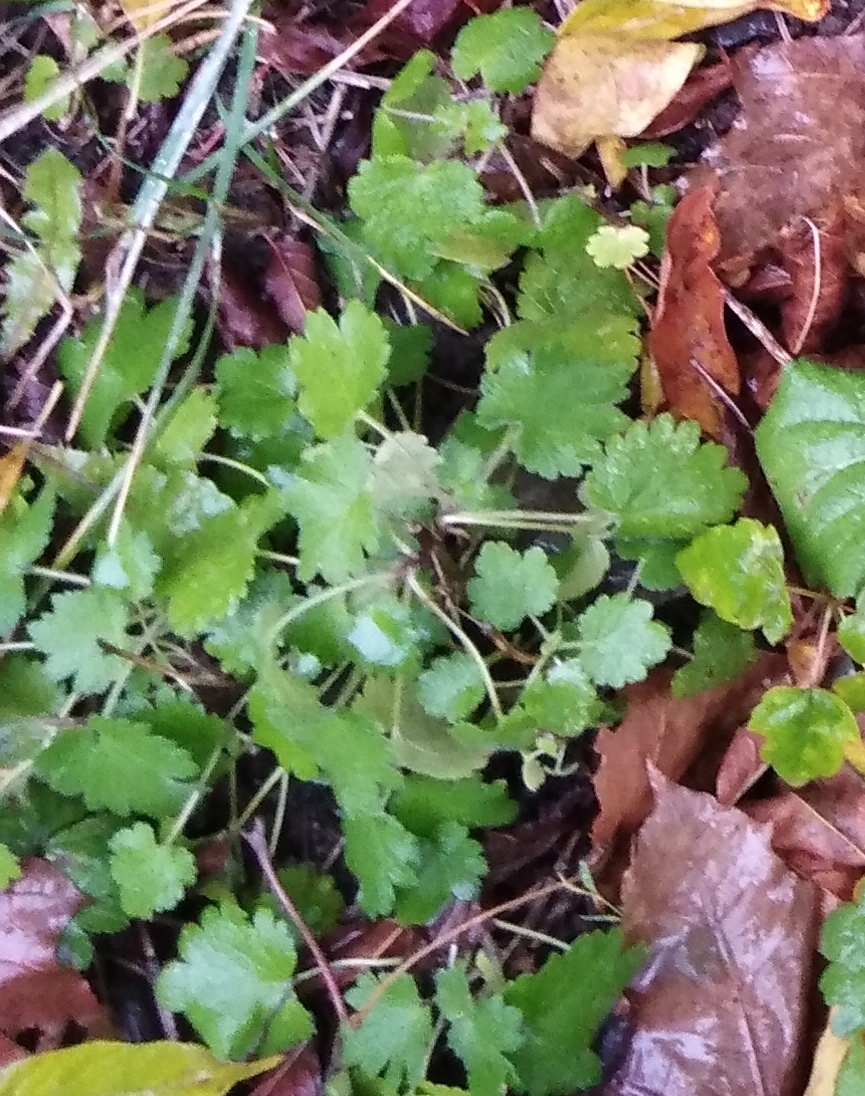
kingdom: Plantae
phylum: Tracheophyta
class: Magnoliopsida
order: Lamiales
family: Lamiaceae
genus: Leonurus
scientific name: Leonurus quinquelobatus
